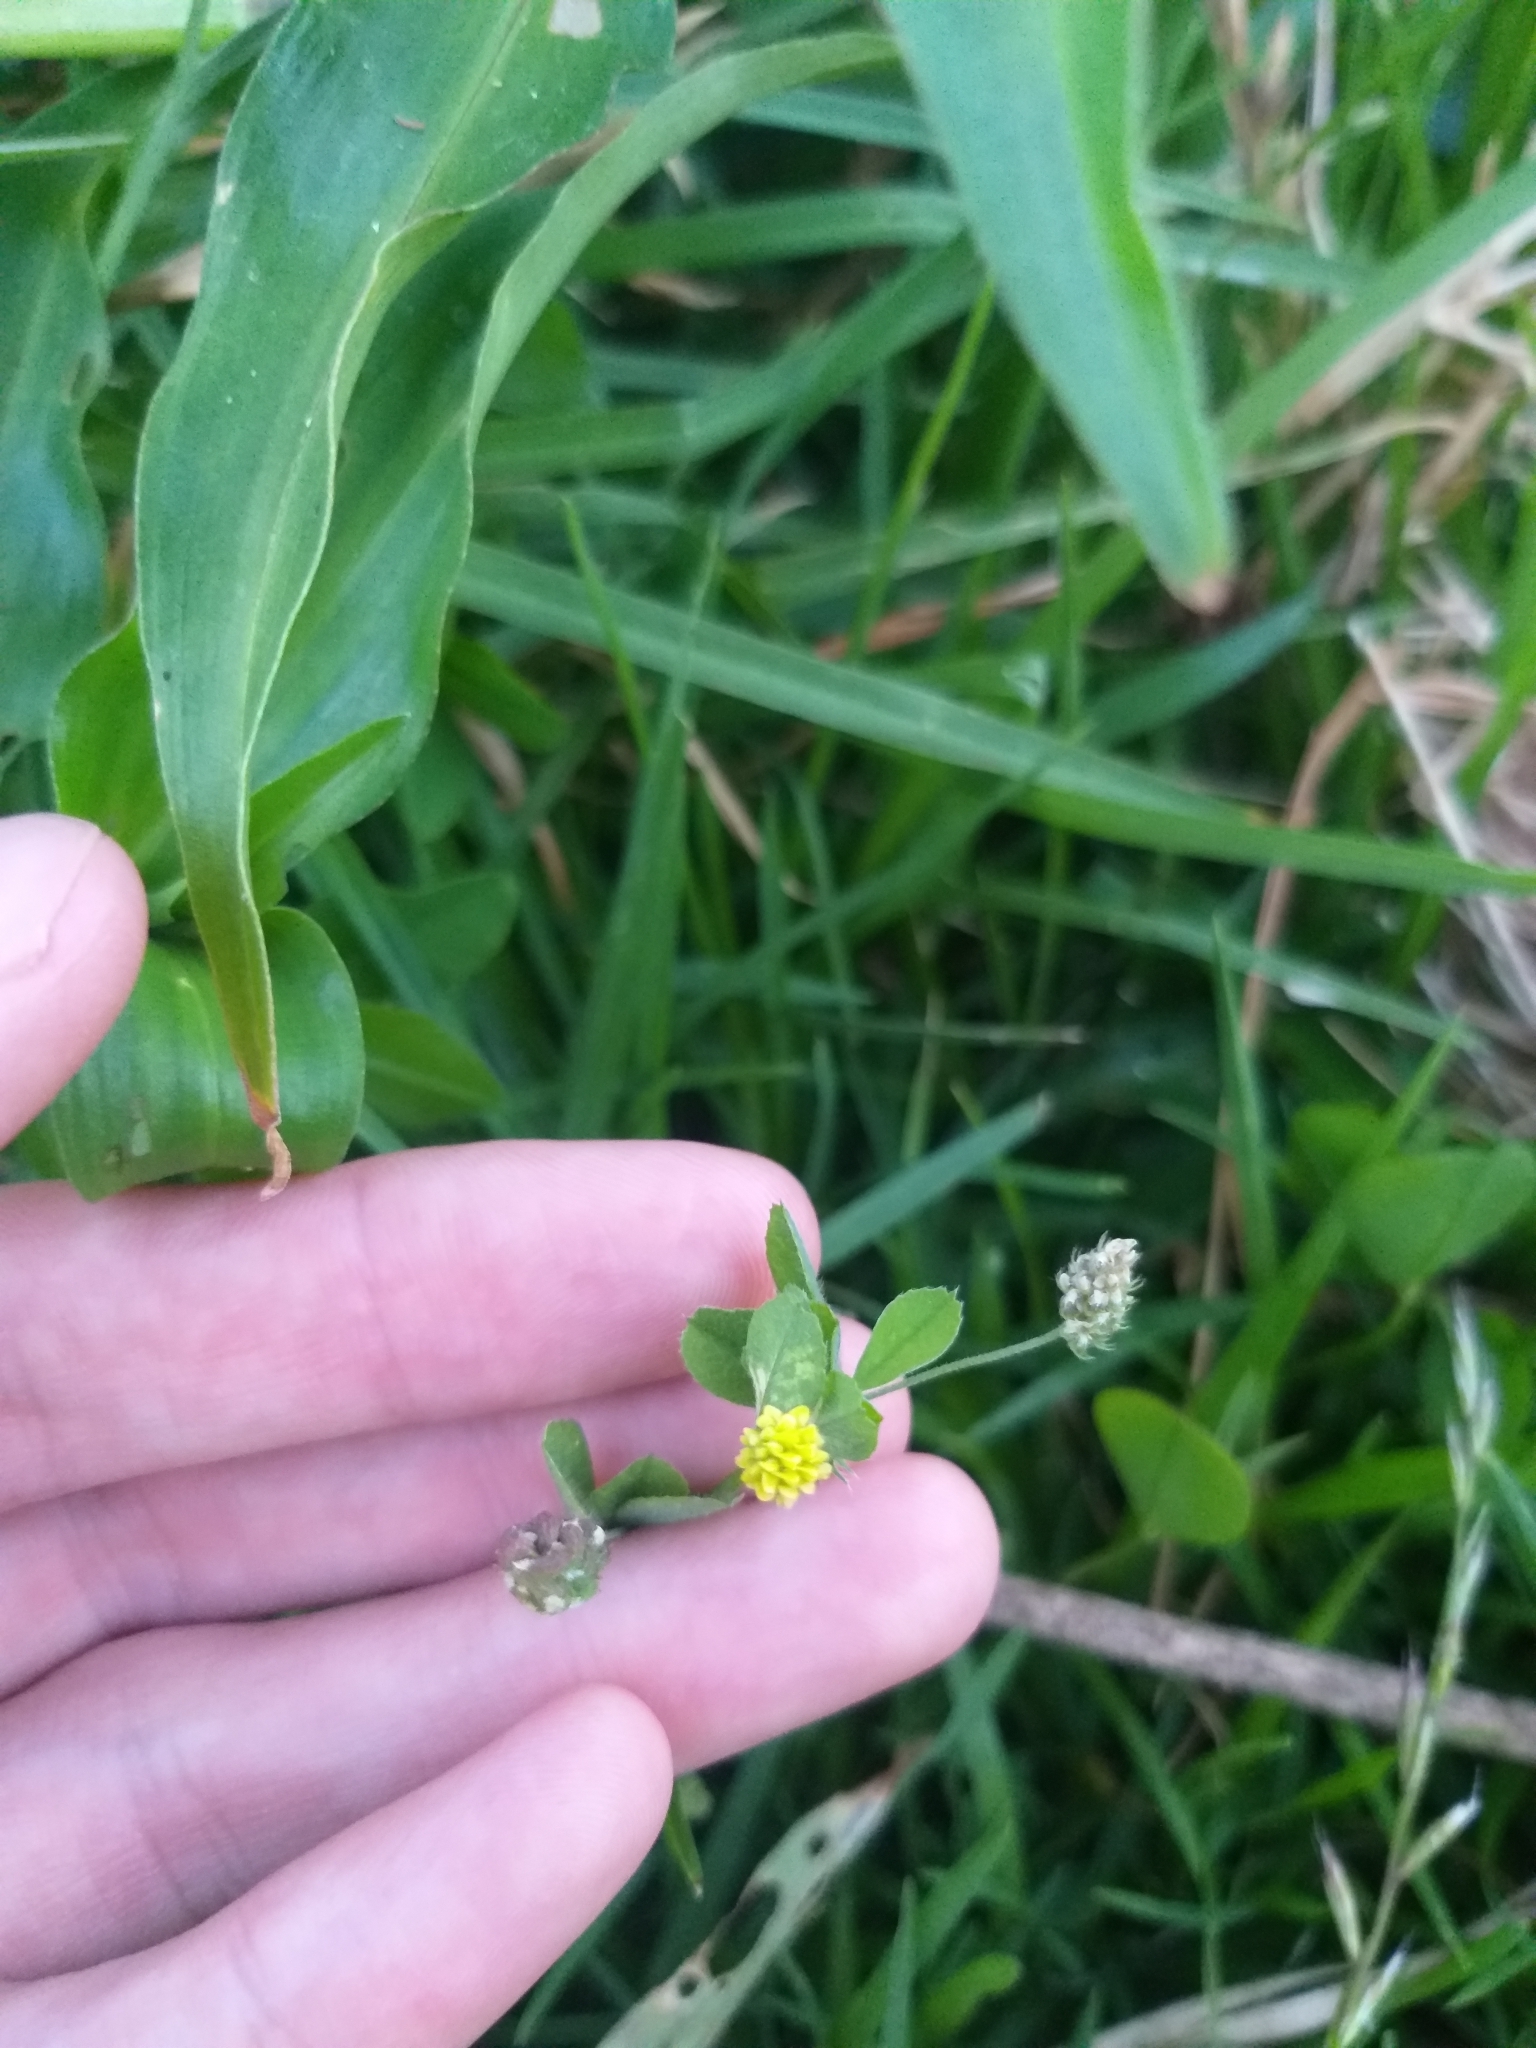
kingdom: Plantae
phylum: Tracheophyta
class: Magnoliopsida
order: Fabales
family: Fabaceae
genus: Medicago
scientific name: Medicago lupulina
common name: Black medick
